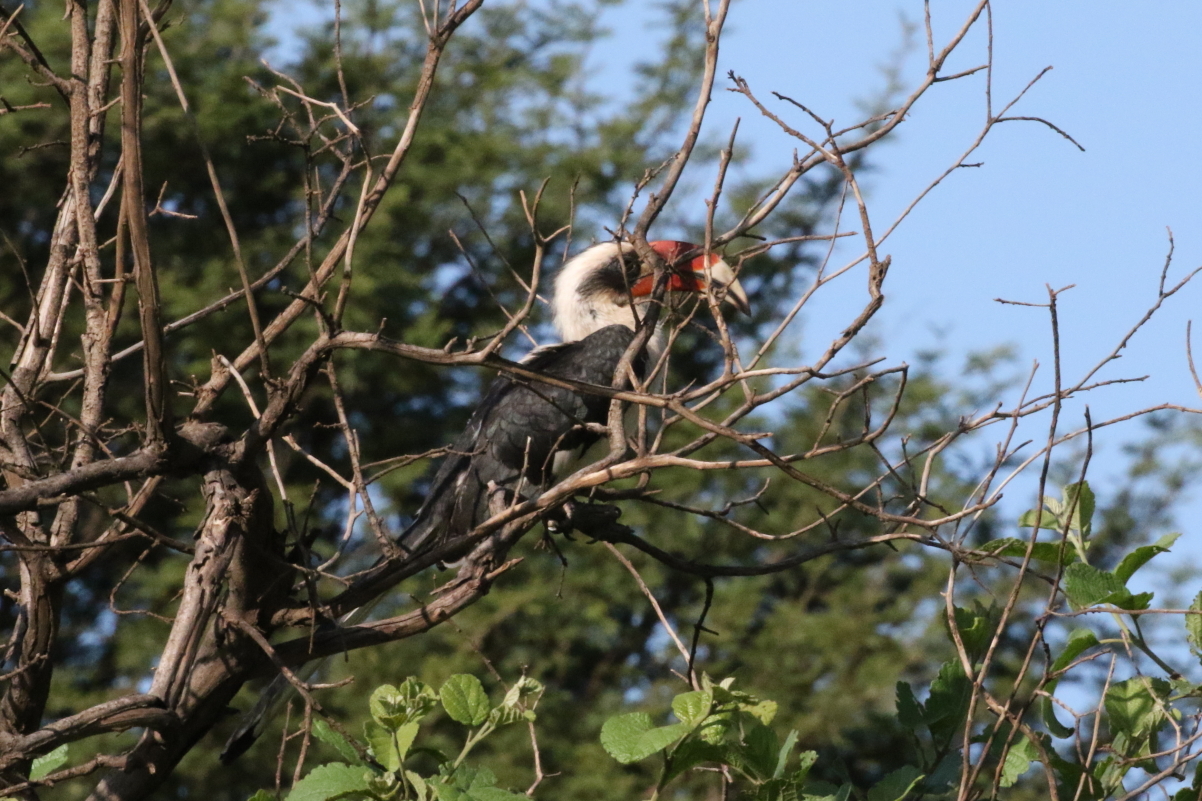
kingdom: Animalia
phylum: Chordata
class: Aves
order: Bucerotiformes
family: Bucerotidae
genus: Tockus
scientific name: Tockus deckeni
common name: Von der decken's hornbill
